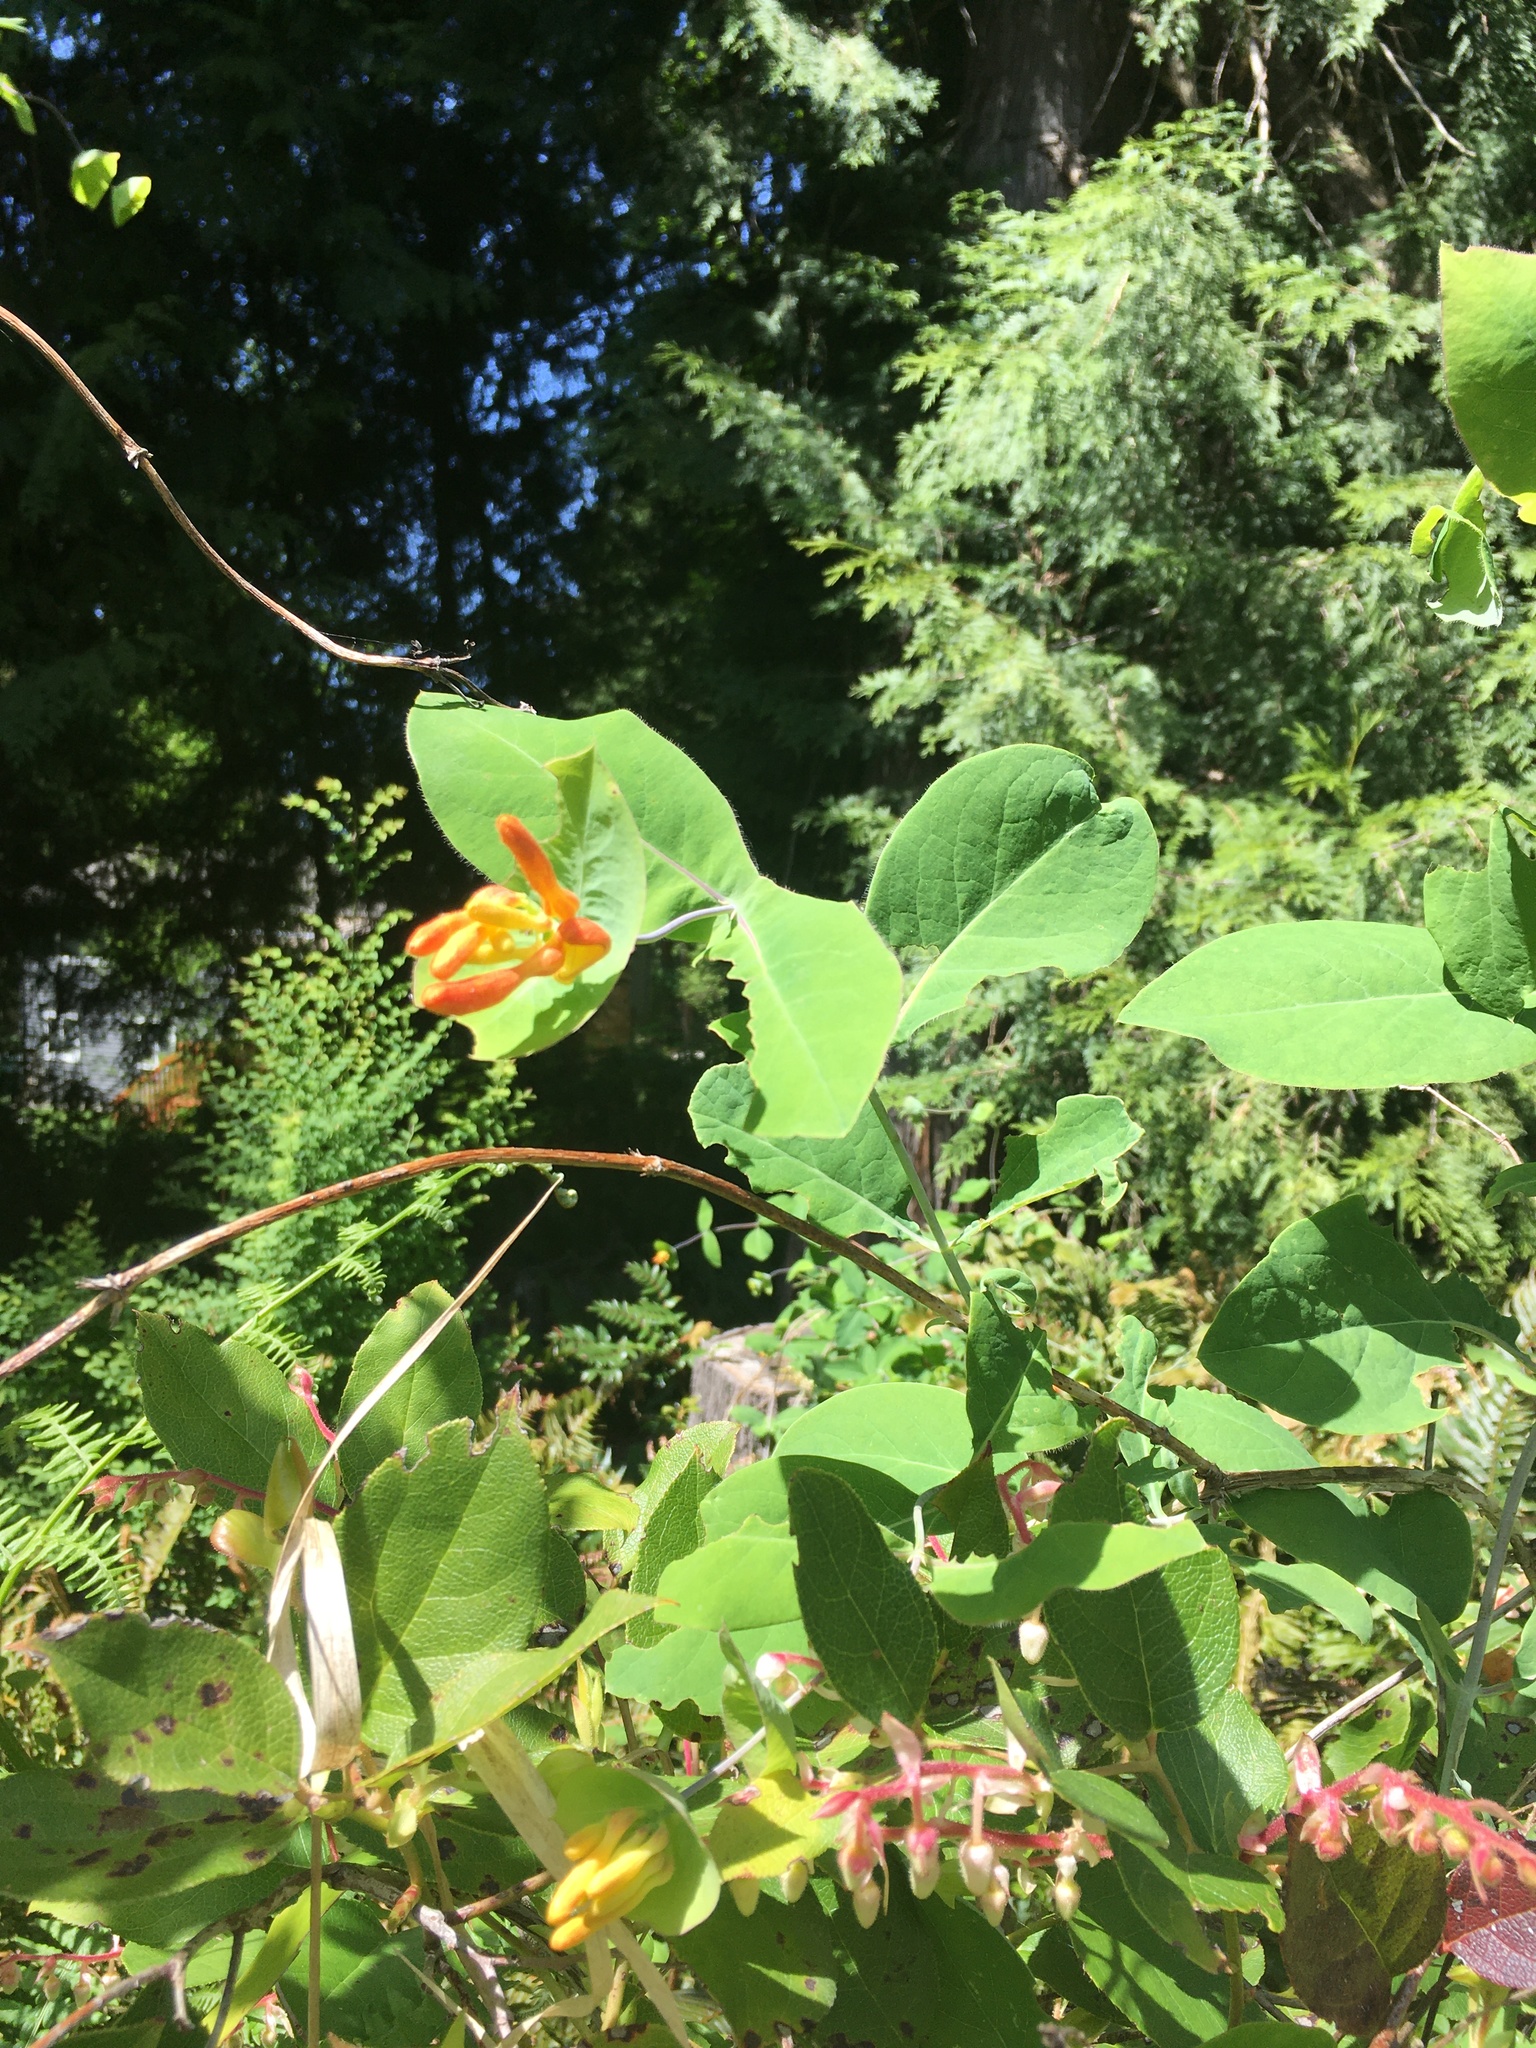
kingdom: Plantae
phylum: Tracheophyta
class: Magnoliopsida
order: Dipsacales
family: Caprifoliaceae
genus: Lonicera
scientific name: Lonicera ciliosa
